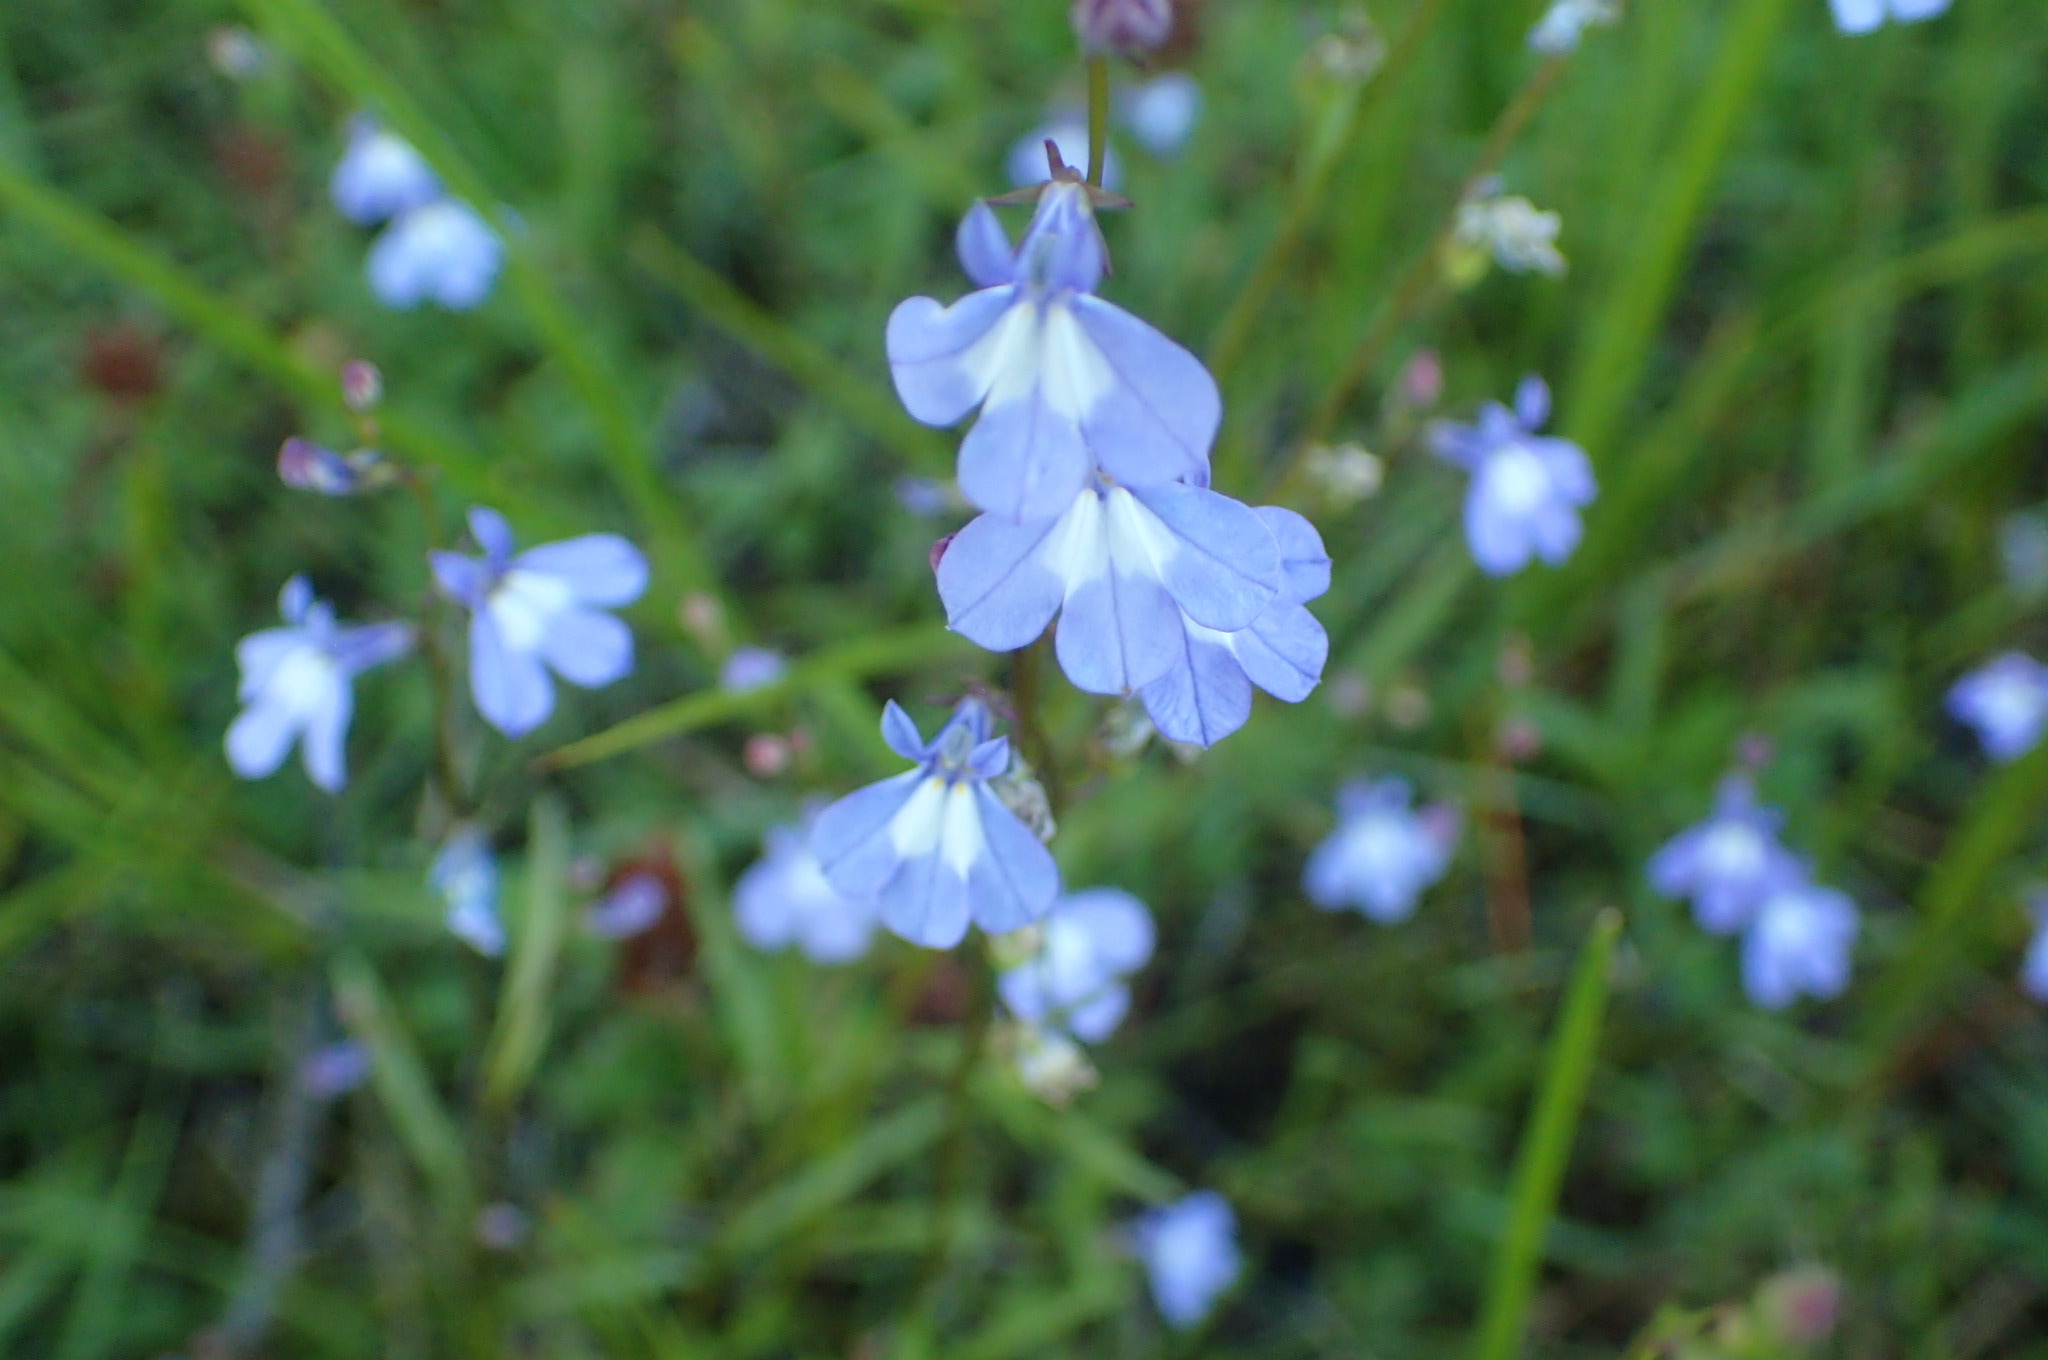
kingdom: Plantae
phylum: Tracheophyta
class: Magnoliopsida
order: Asterales
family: Campanulaceae
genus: Lobelia
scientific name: Lobelia kalmii
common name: Kalm's lobelia
